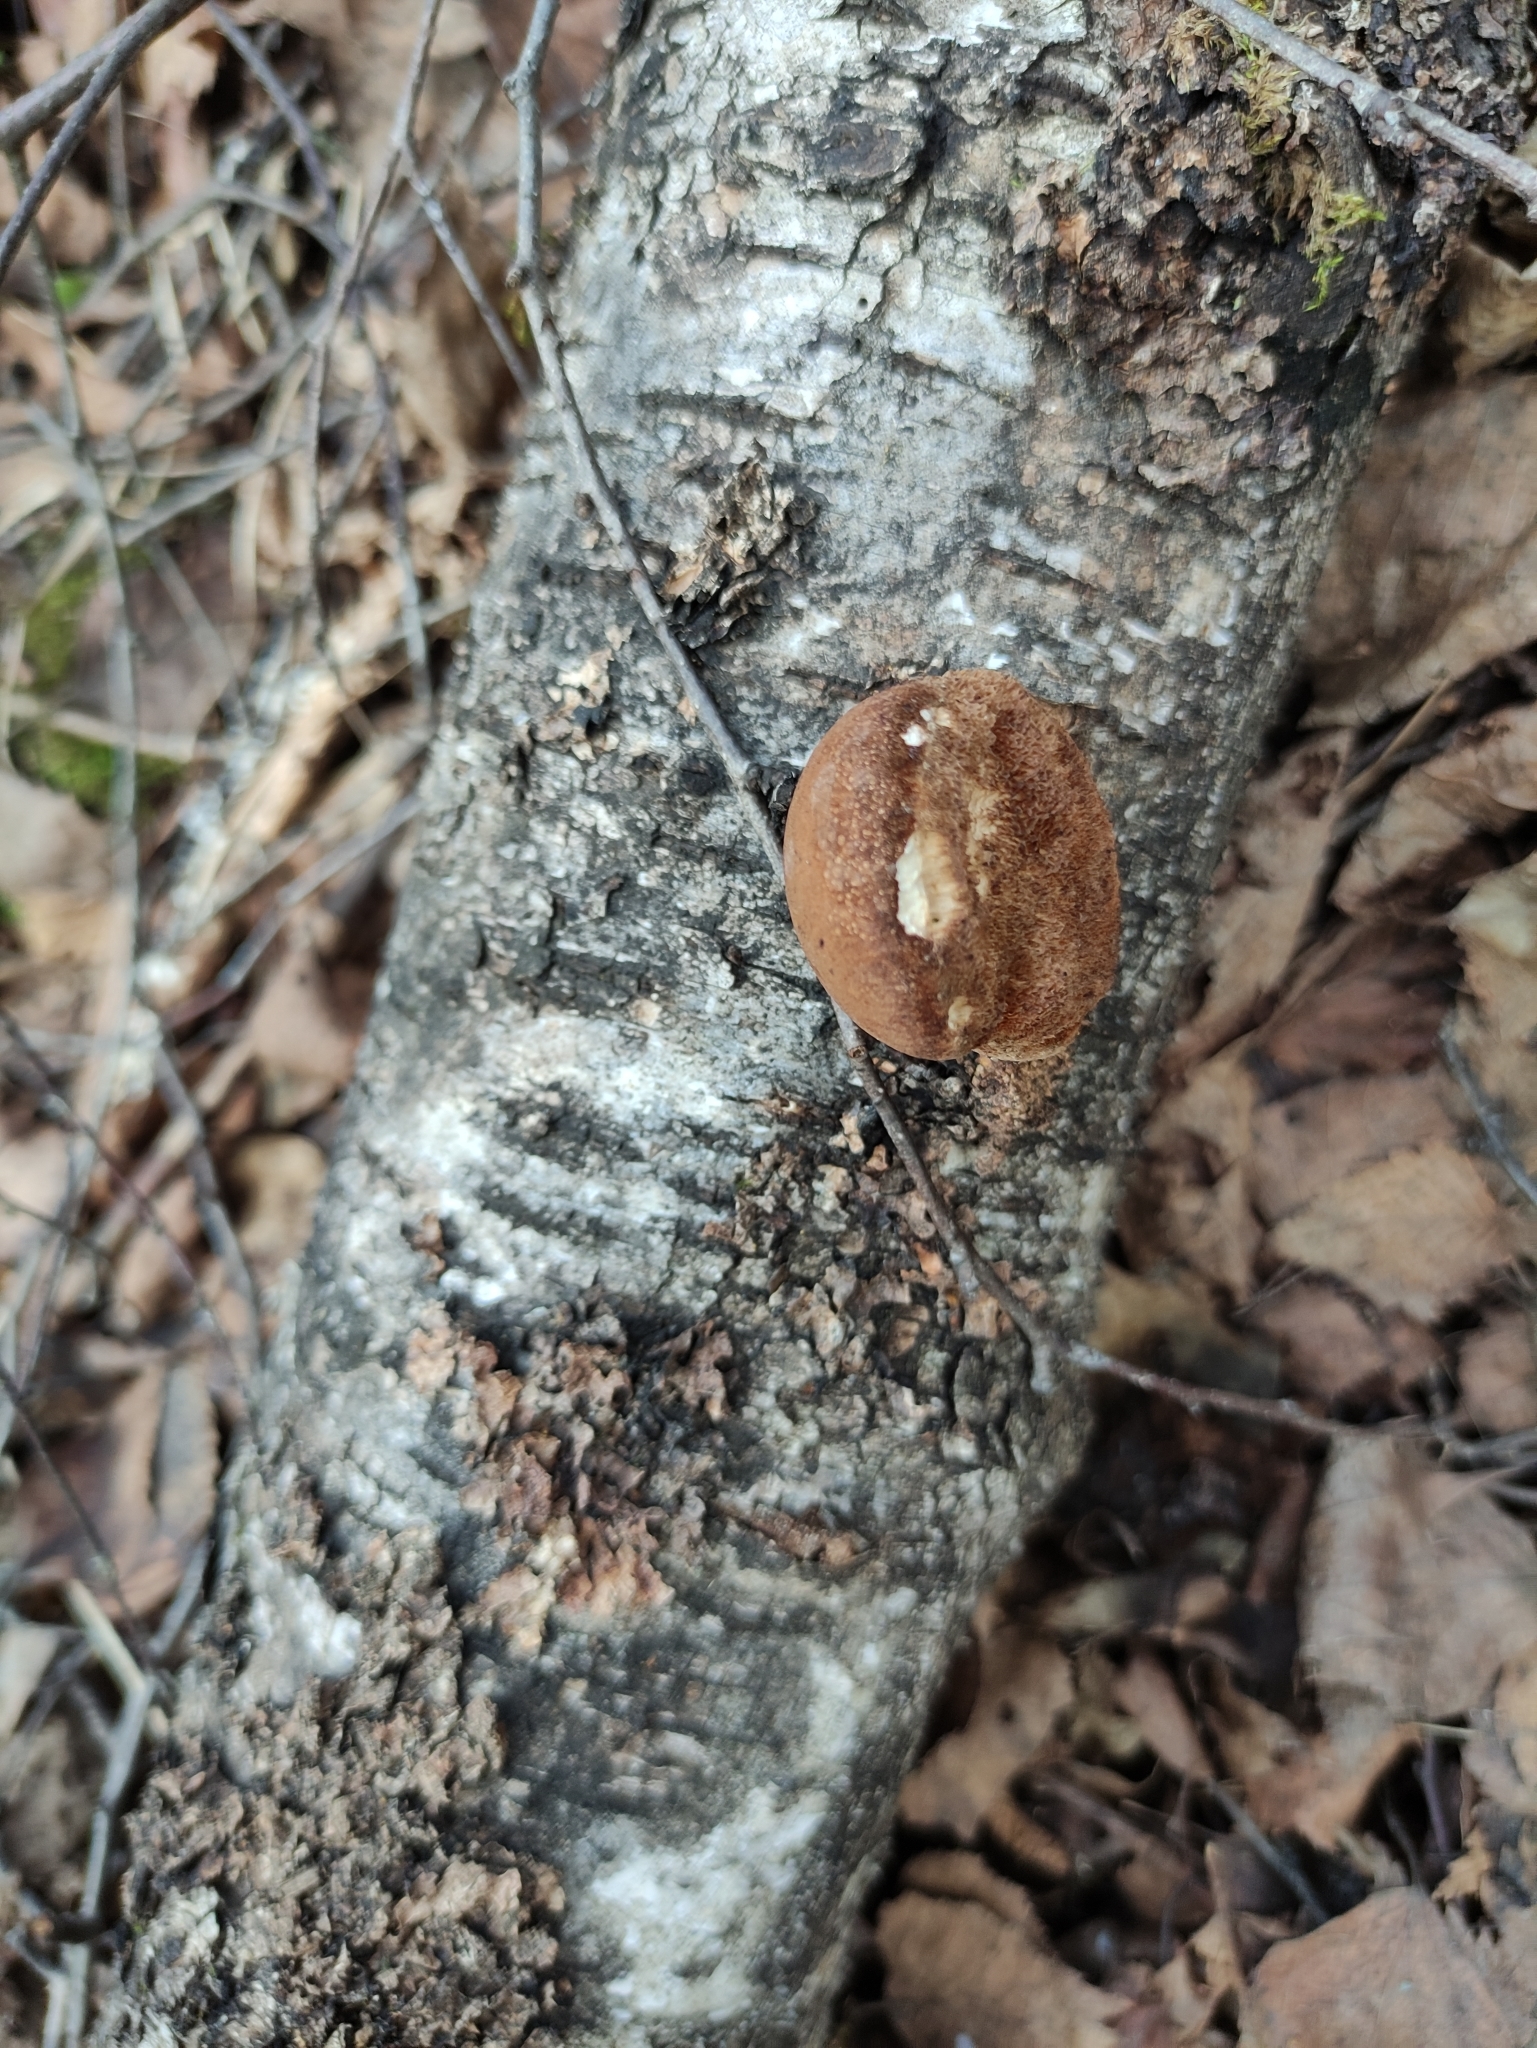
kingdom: Fungi
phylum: Basidiomycota
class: Agaricomycetes
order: Polyporales
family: Fomitopsidaceae
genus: Fomitopsis
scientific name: Fomitopsis betulina
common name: Birch polypore
